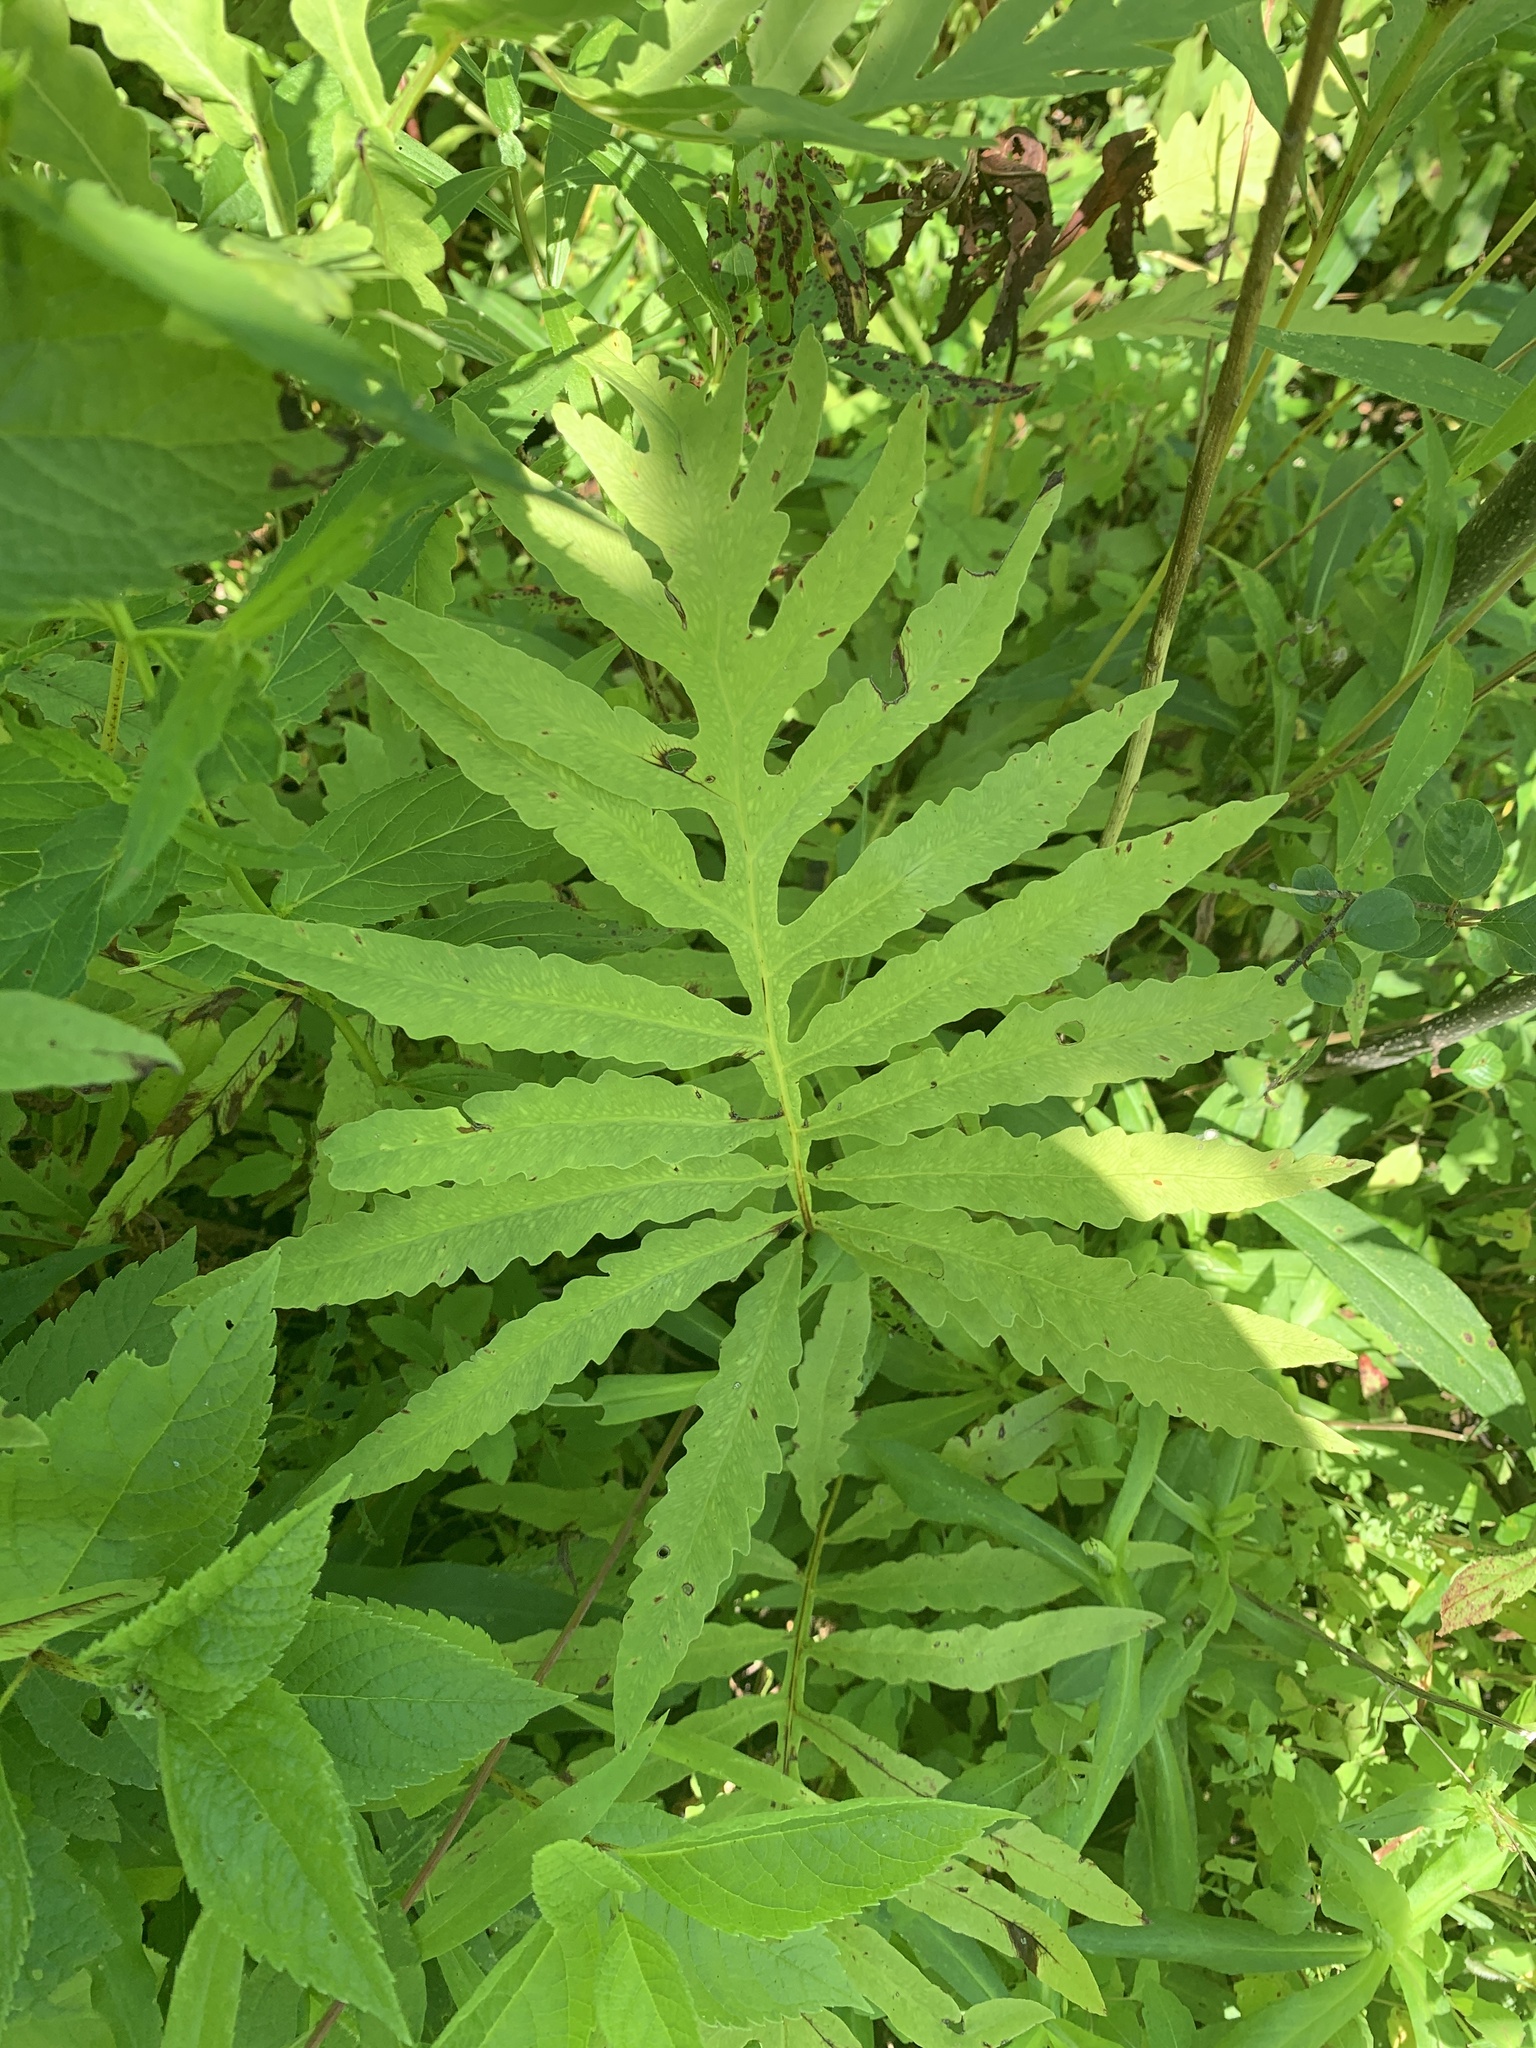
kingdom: Plantae
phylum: Tracheophyta
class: Polypodiopsida
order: Polypodiales
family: Onocleaceae
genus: Onoclea
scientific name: Onoclea sensibilis
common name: Sensitive fern
